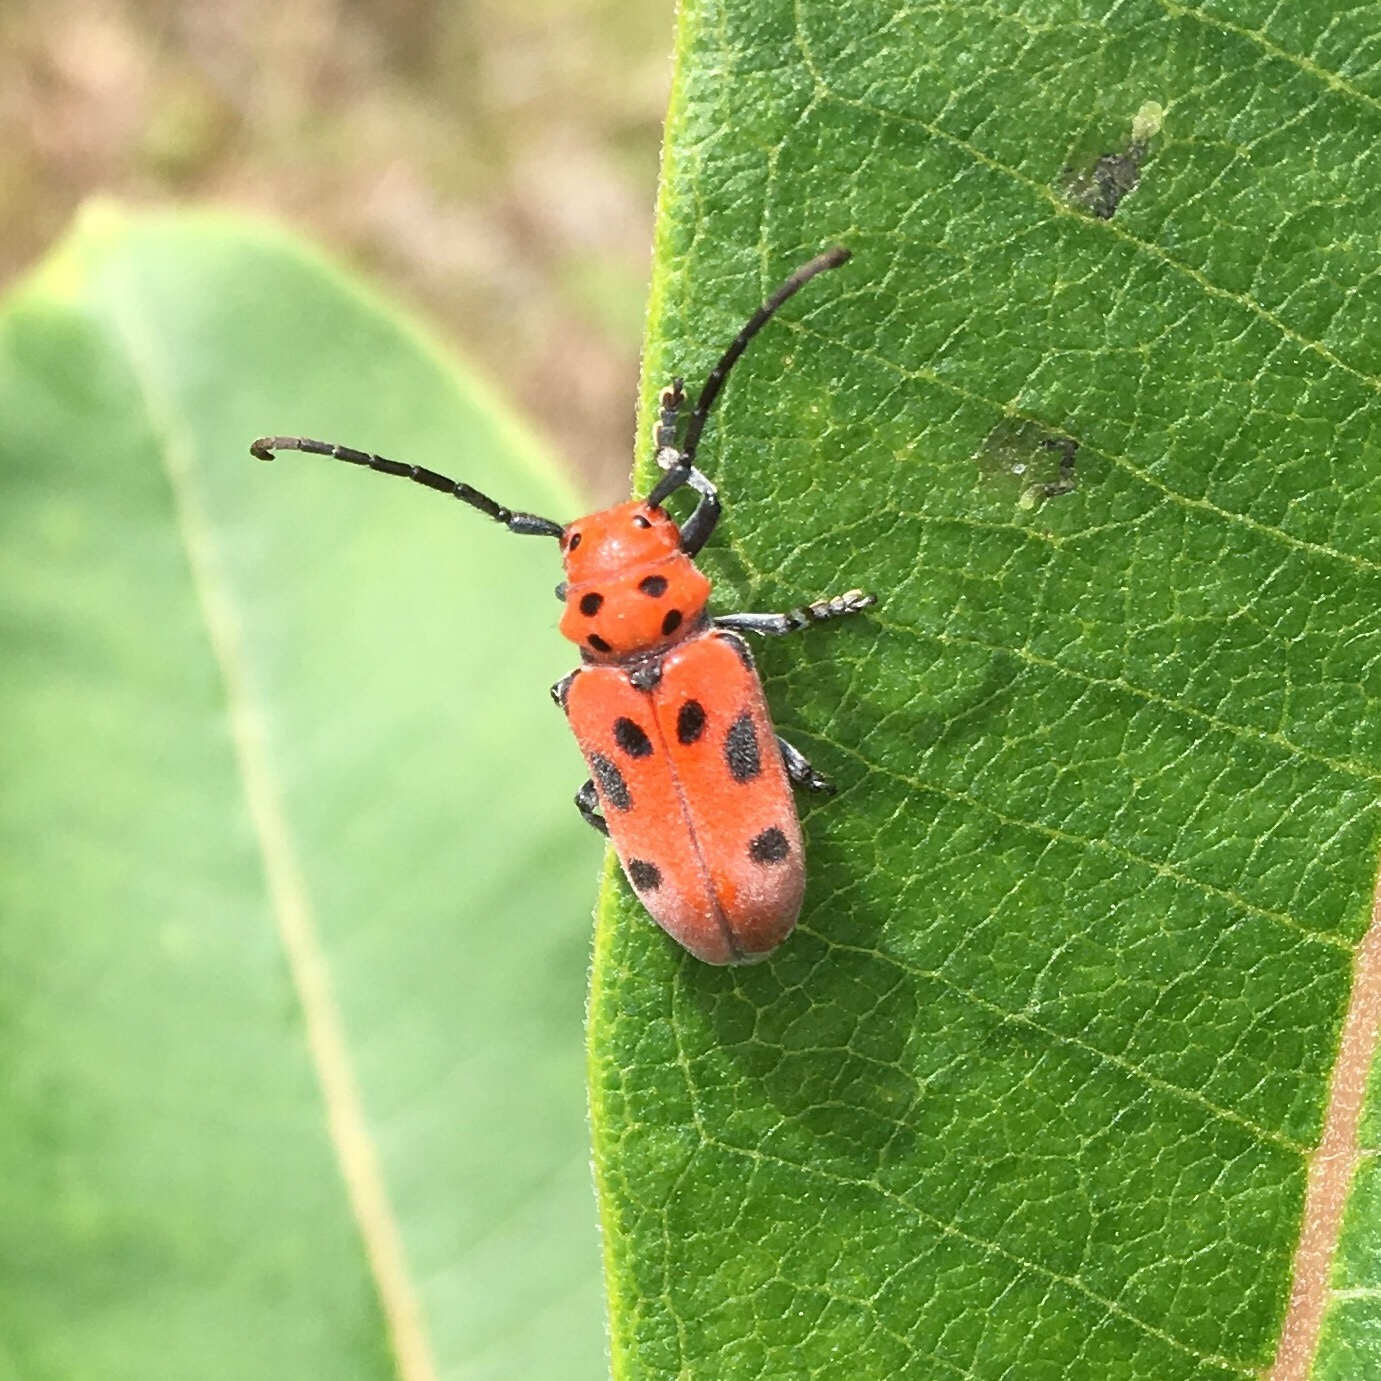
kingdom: Animalia
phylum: Arthropoda
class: Insecta
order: Coleoptera
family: Cerambycidae
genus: Tetraopes
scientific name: Tetraopes tetrophthalmus
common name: Red milkweed beetle
